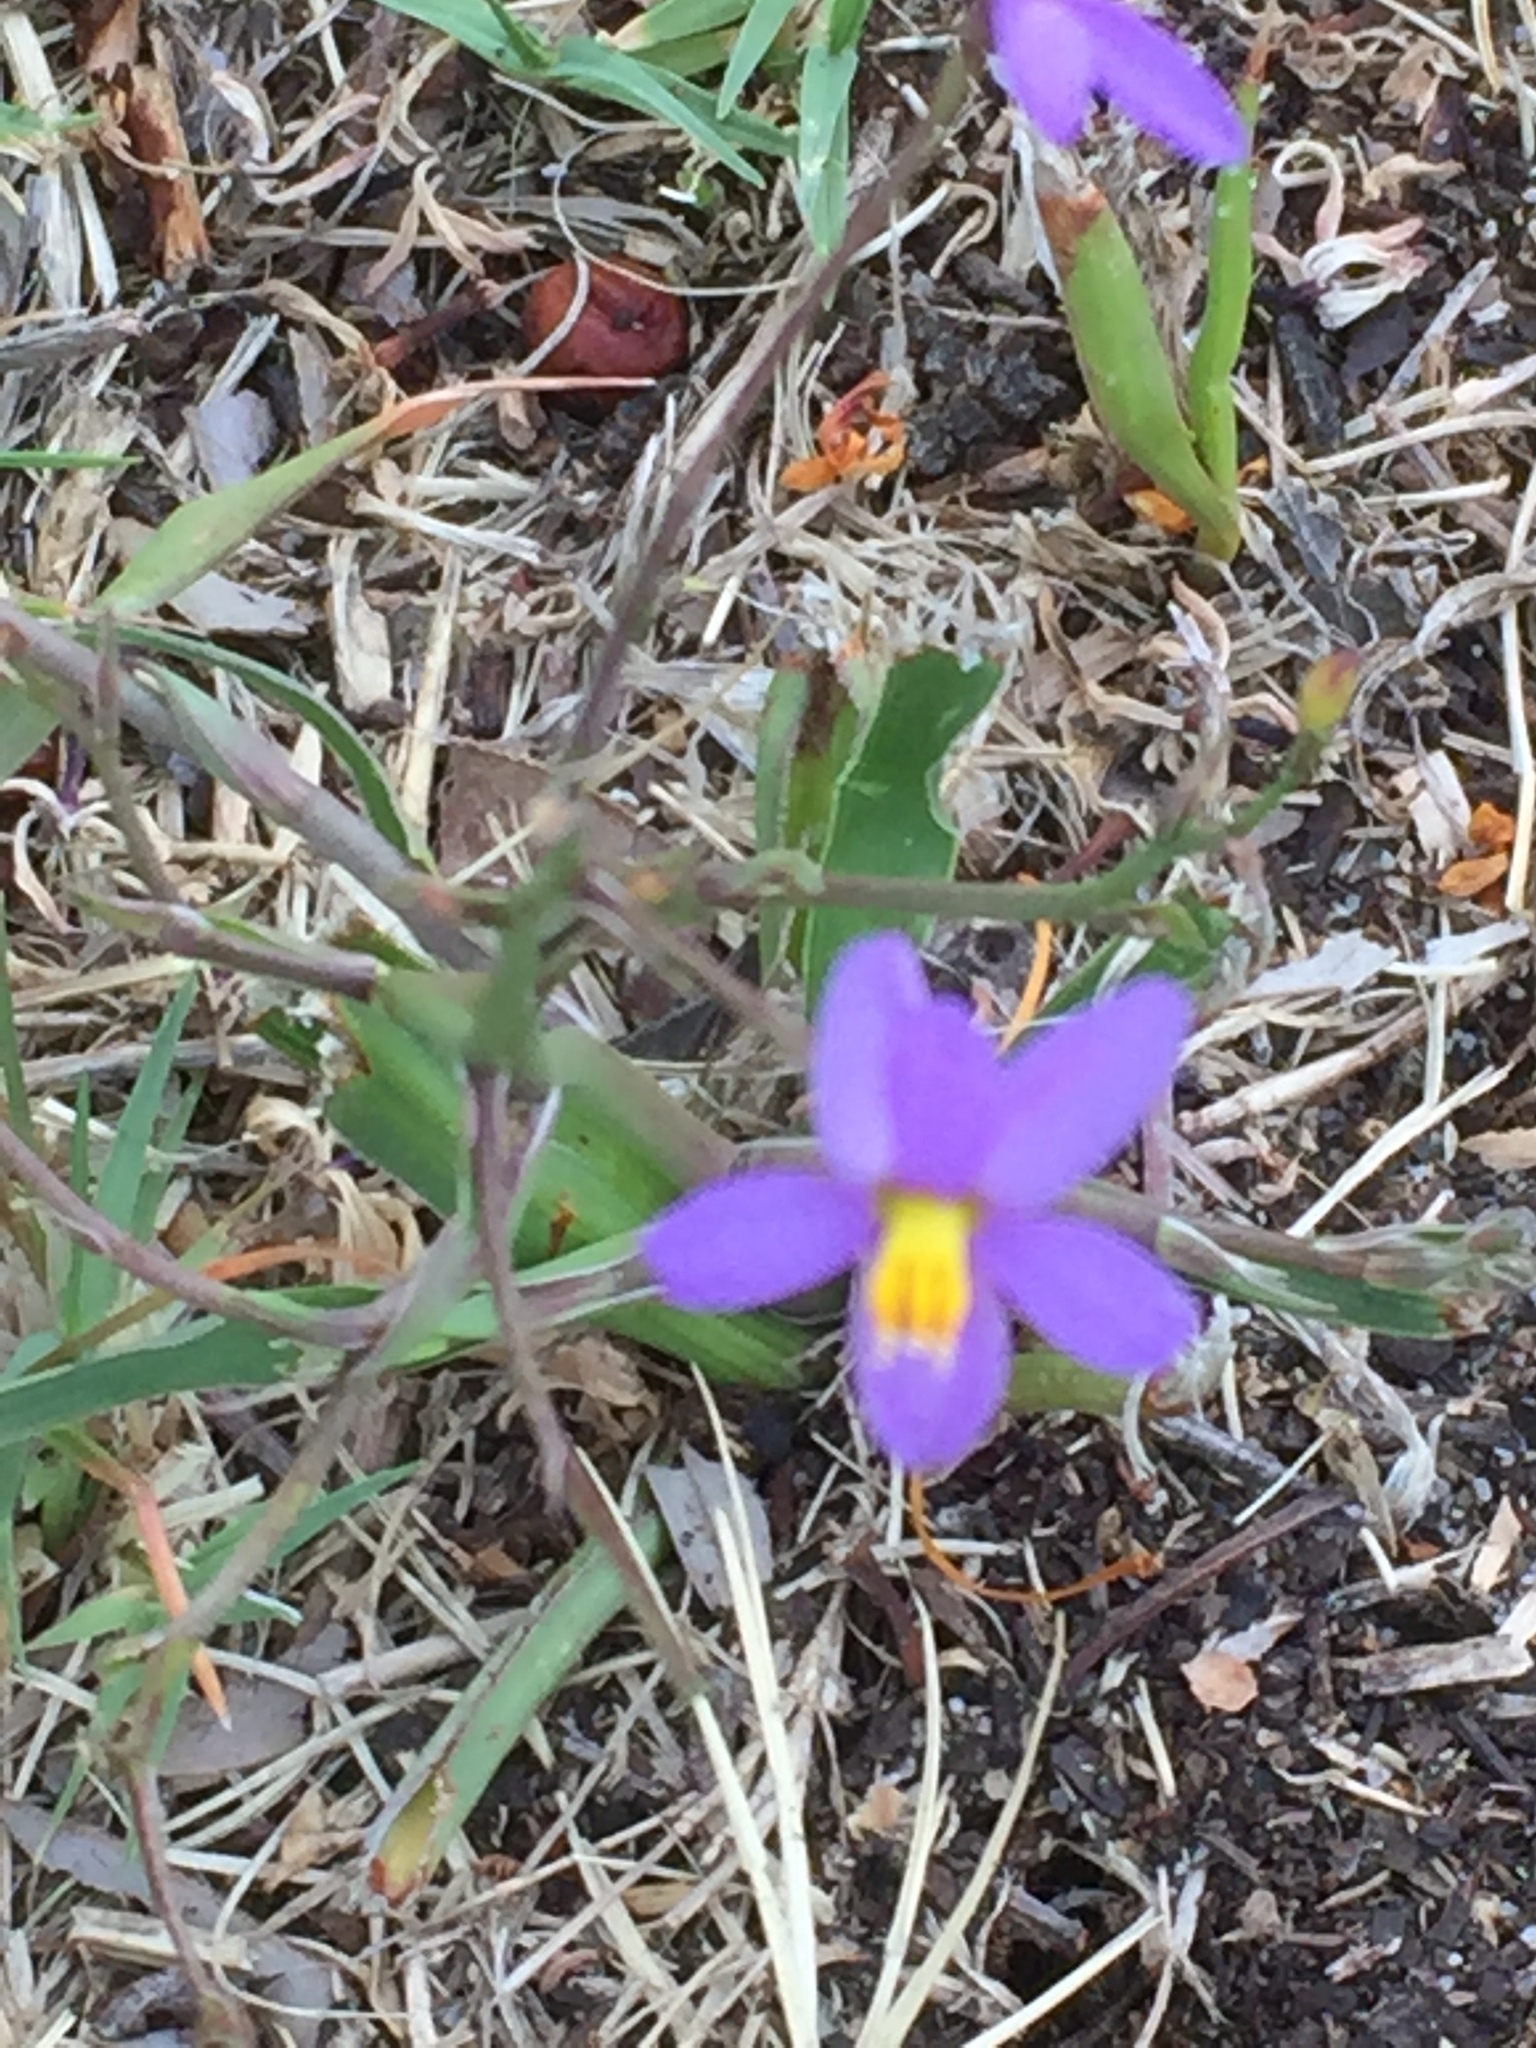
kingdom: Plantae
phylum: Tracheophyta
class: Liliopsida
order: Asparagales
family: Tecophilaeaceae
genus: Cyanella
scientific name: Cyanella hyacinthoides
